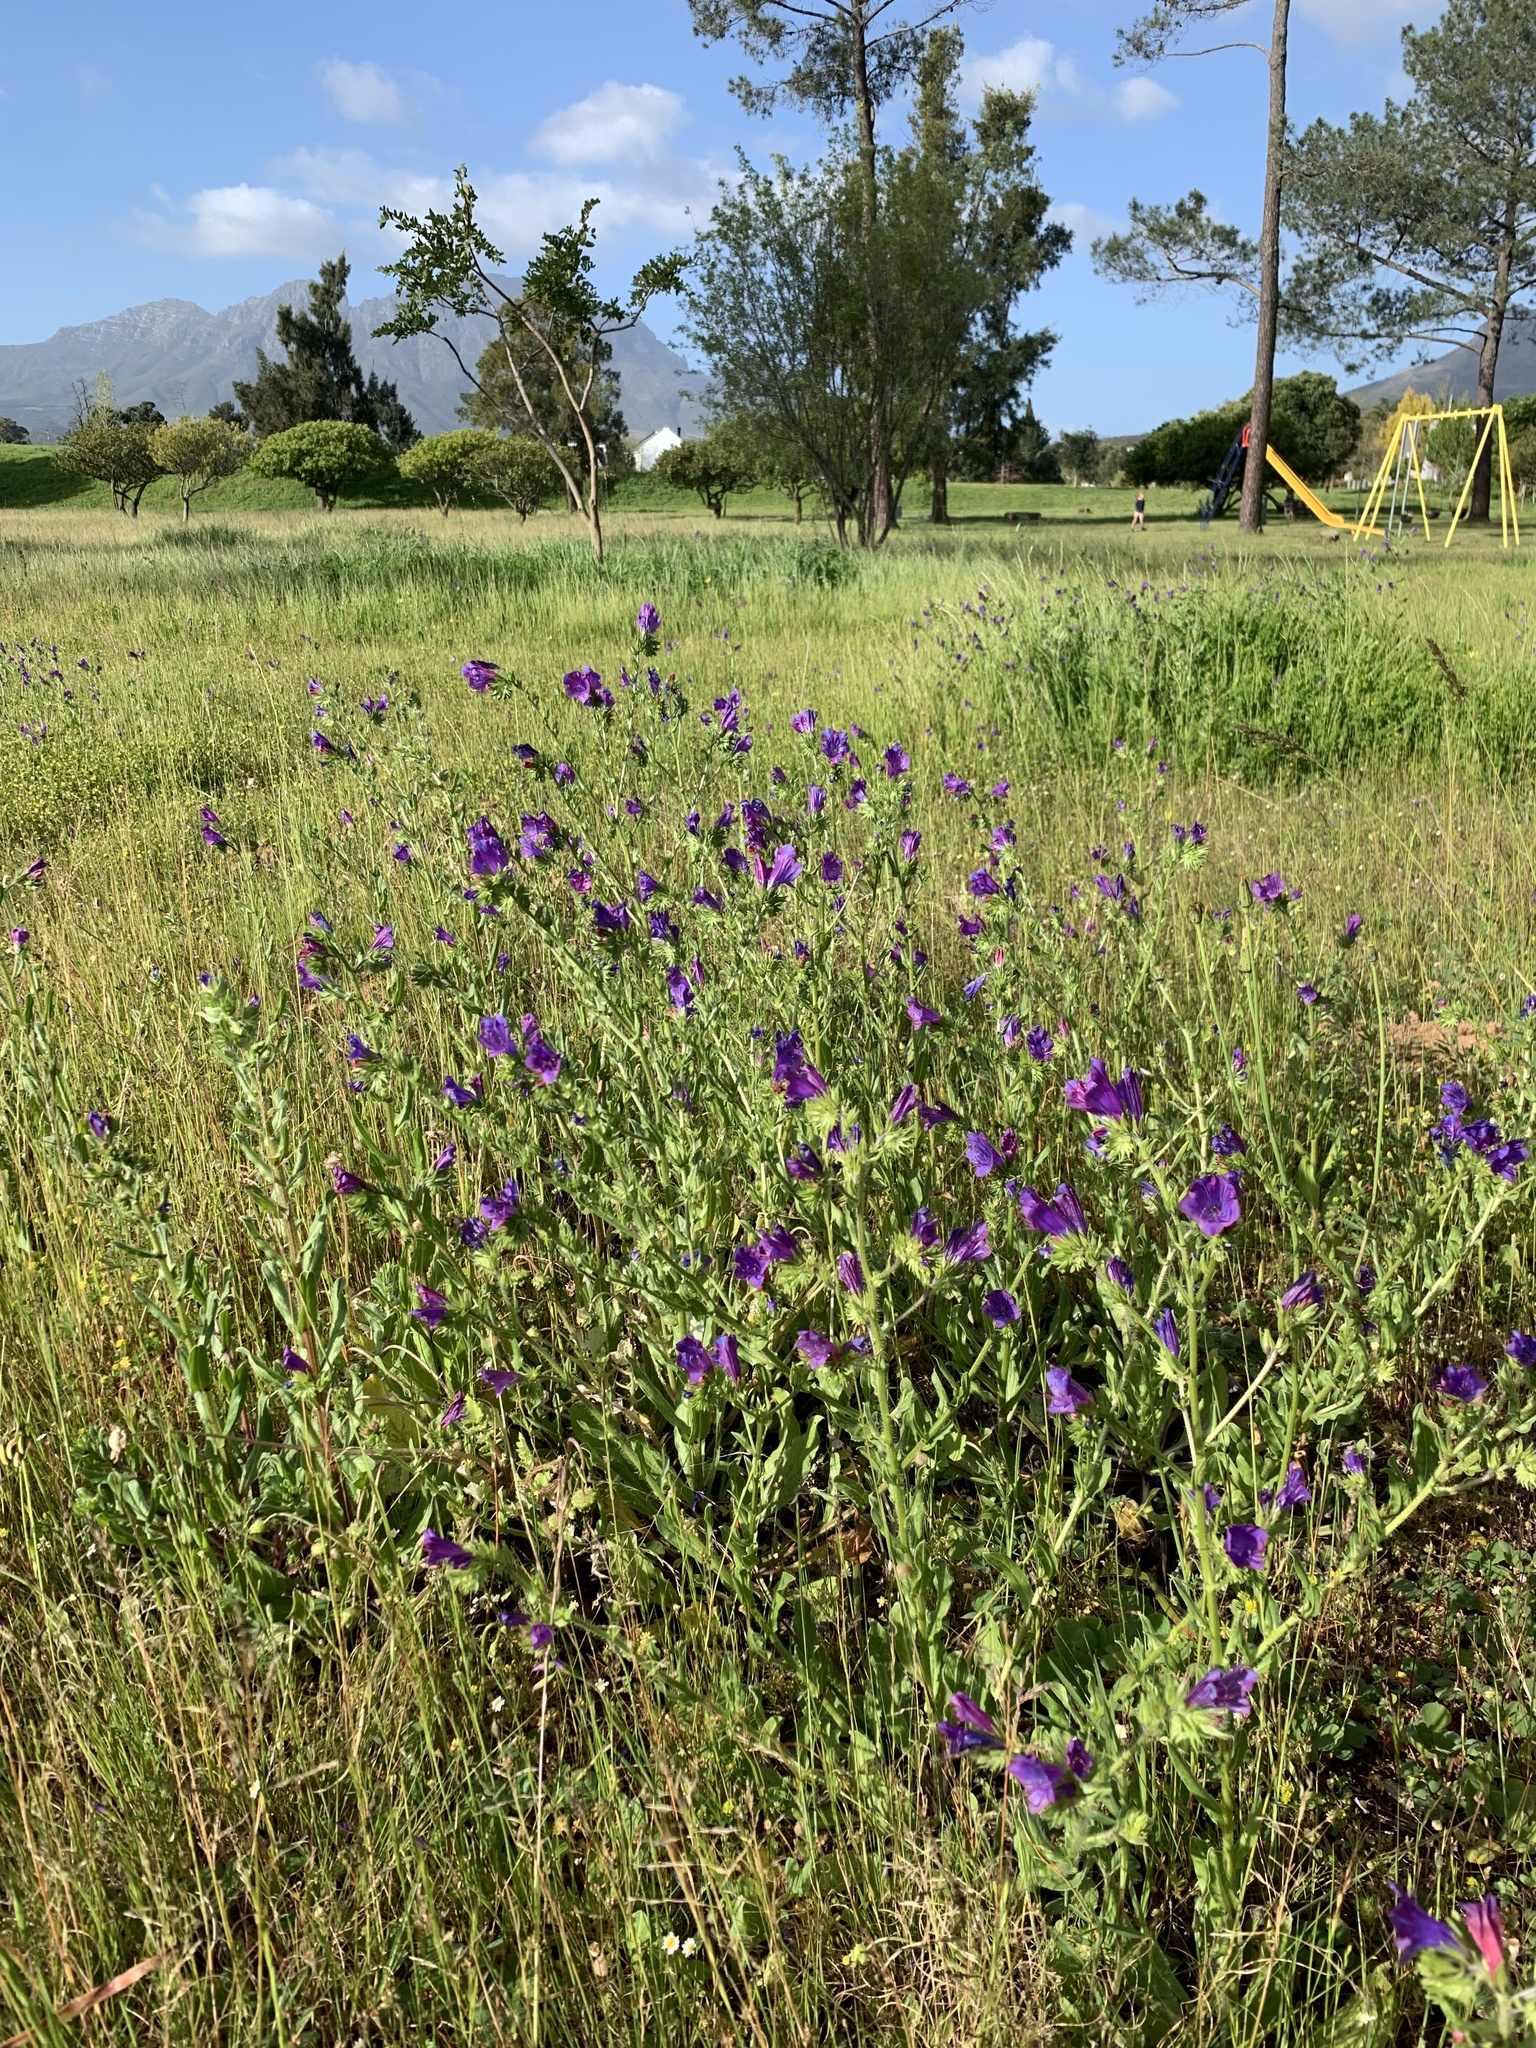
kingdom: Plantae
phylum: Tracheophyta
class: Magnoliopsida
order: Boraginales
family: Boraginaceae
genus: Echium
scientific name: Echium plantagineum
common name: Purple viper's-bugloss
